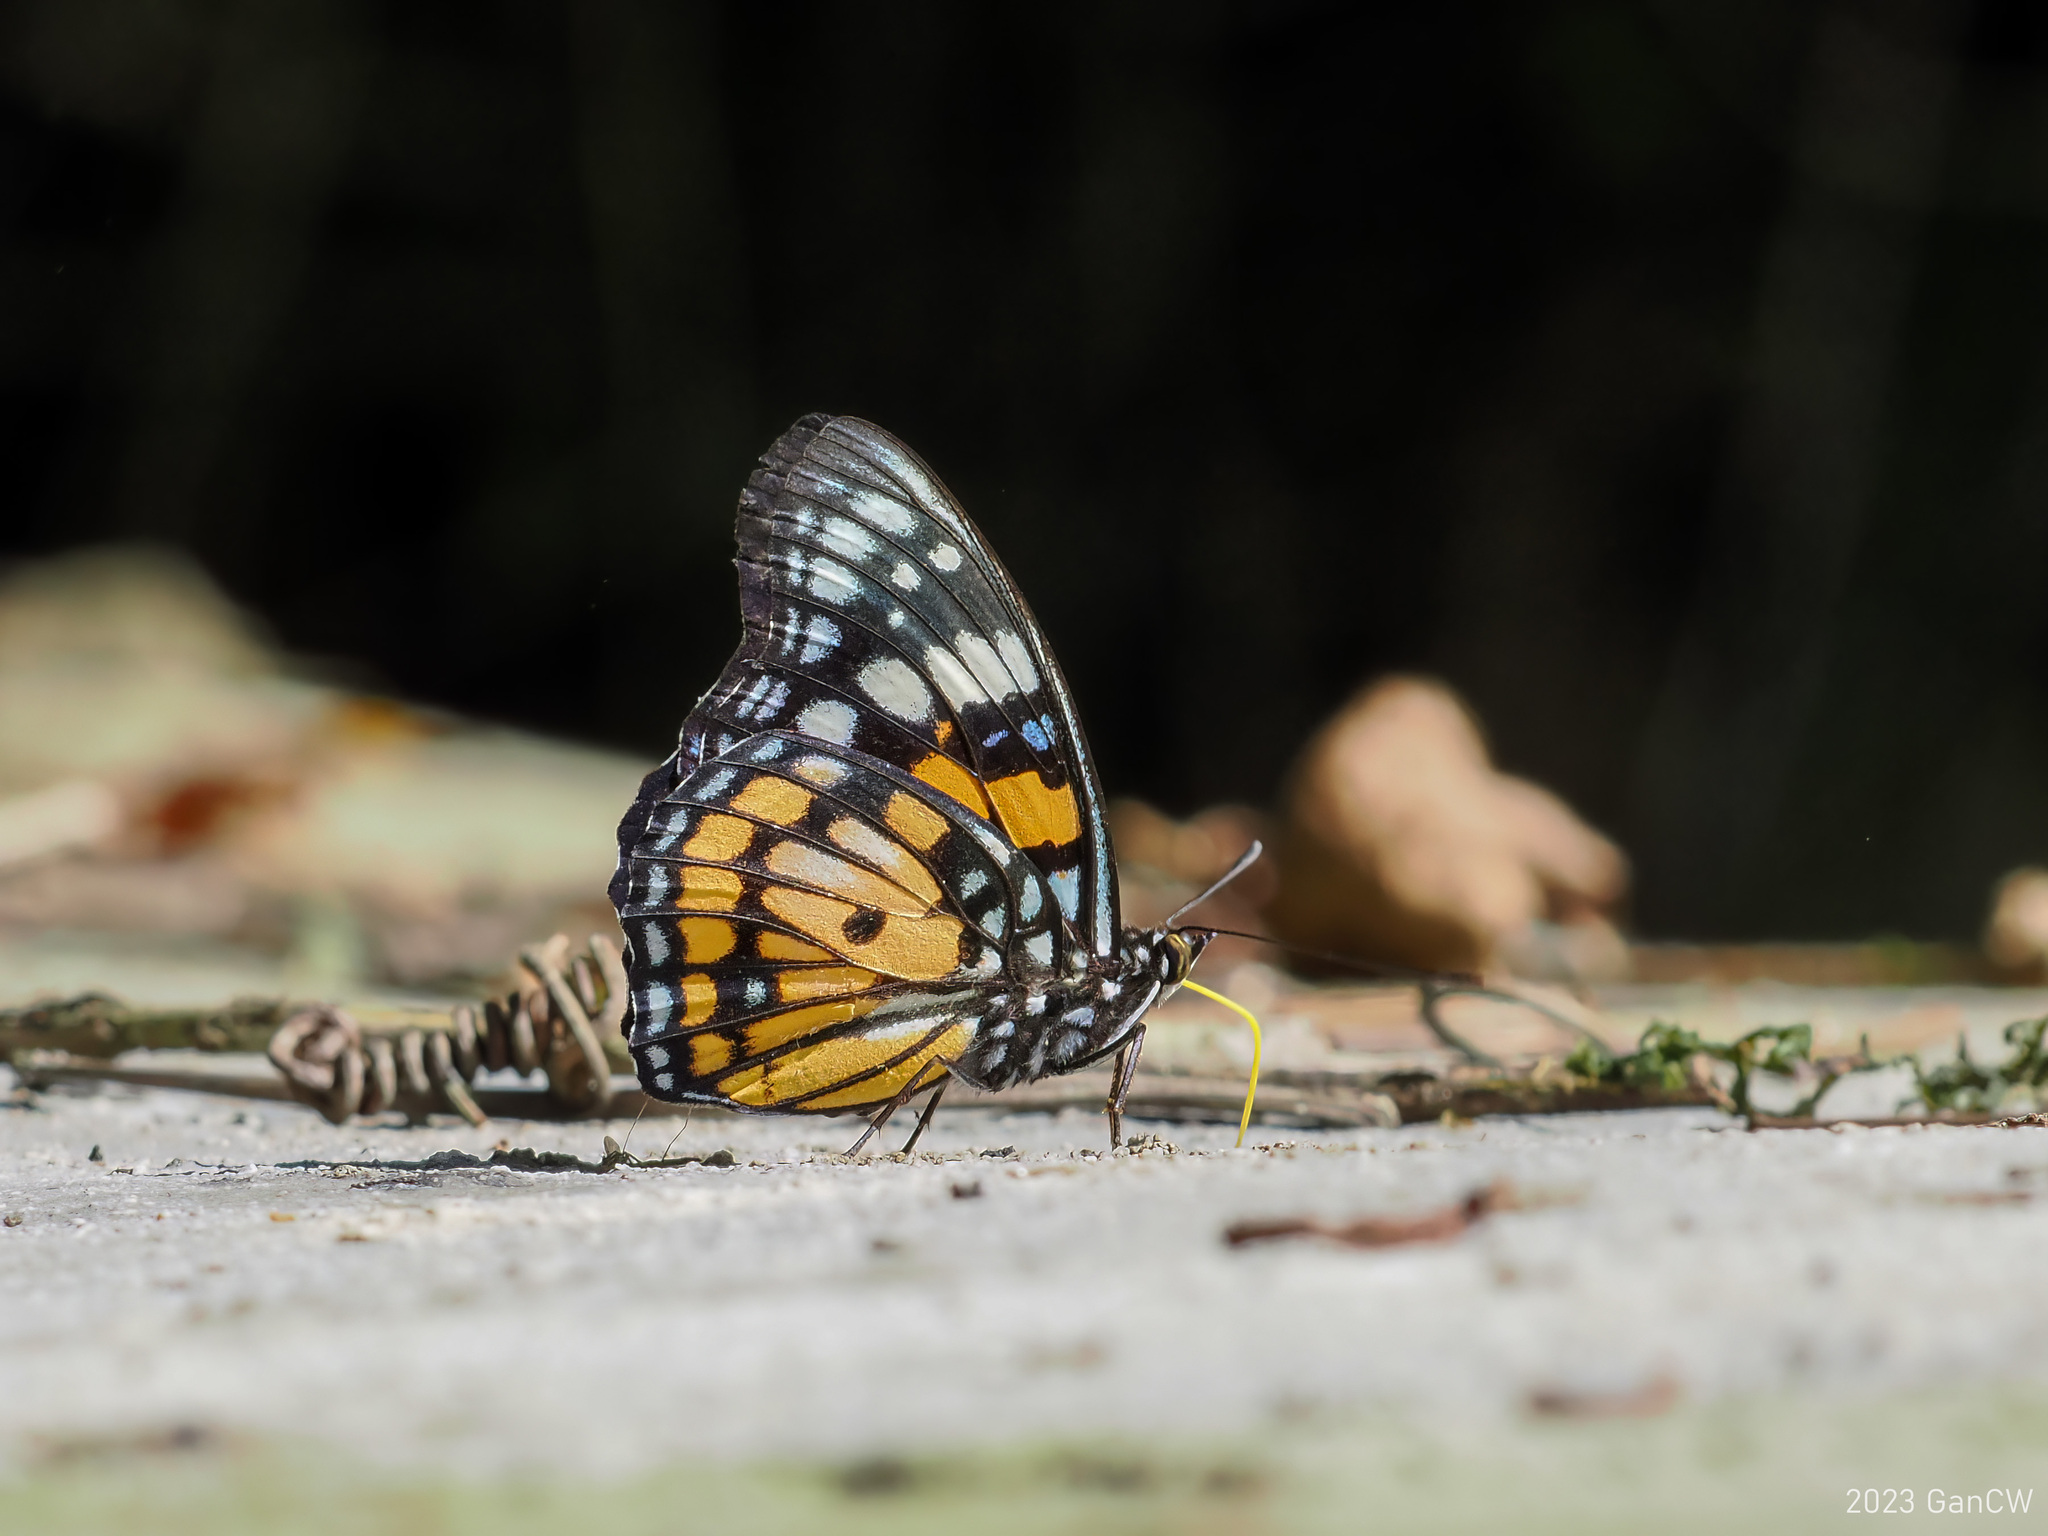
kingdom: Animalia
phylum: Arthropoda
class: Insecta
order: Lepidoptera
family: Nymphalidae
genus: Sephisa
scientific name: Sephisa chandra
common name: Eastern courtier
